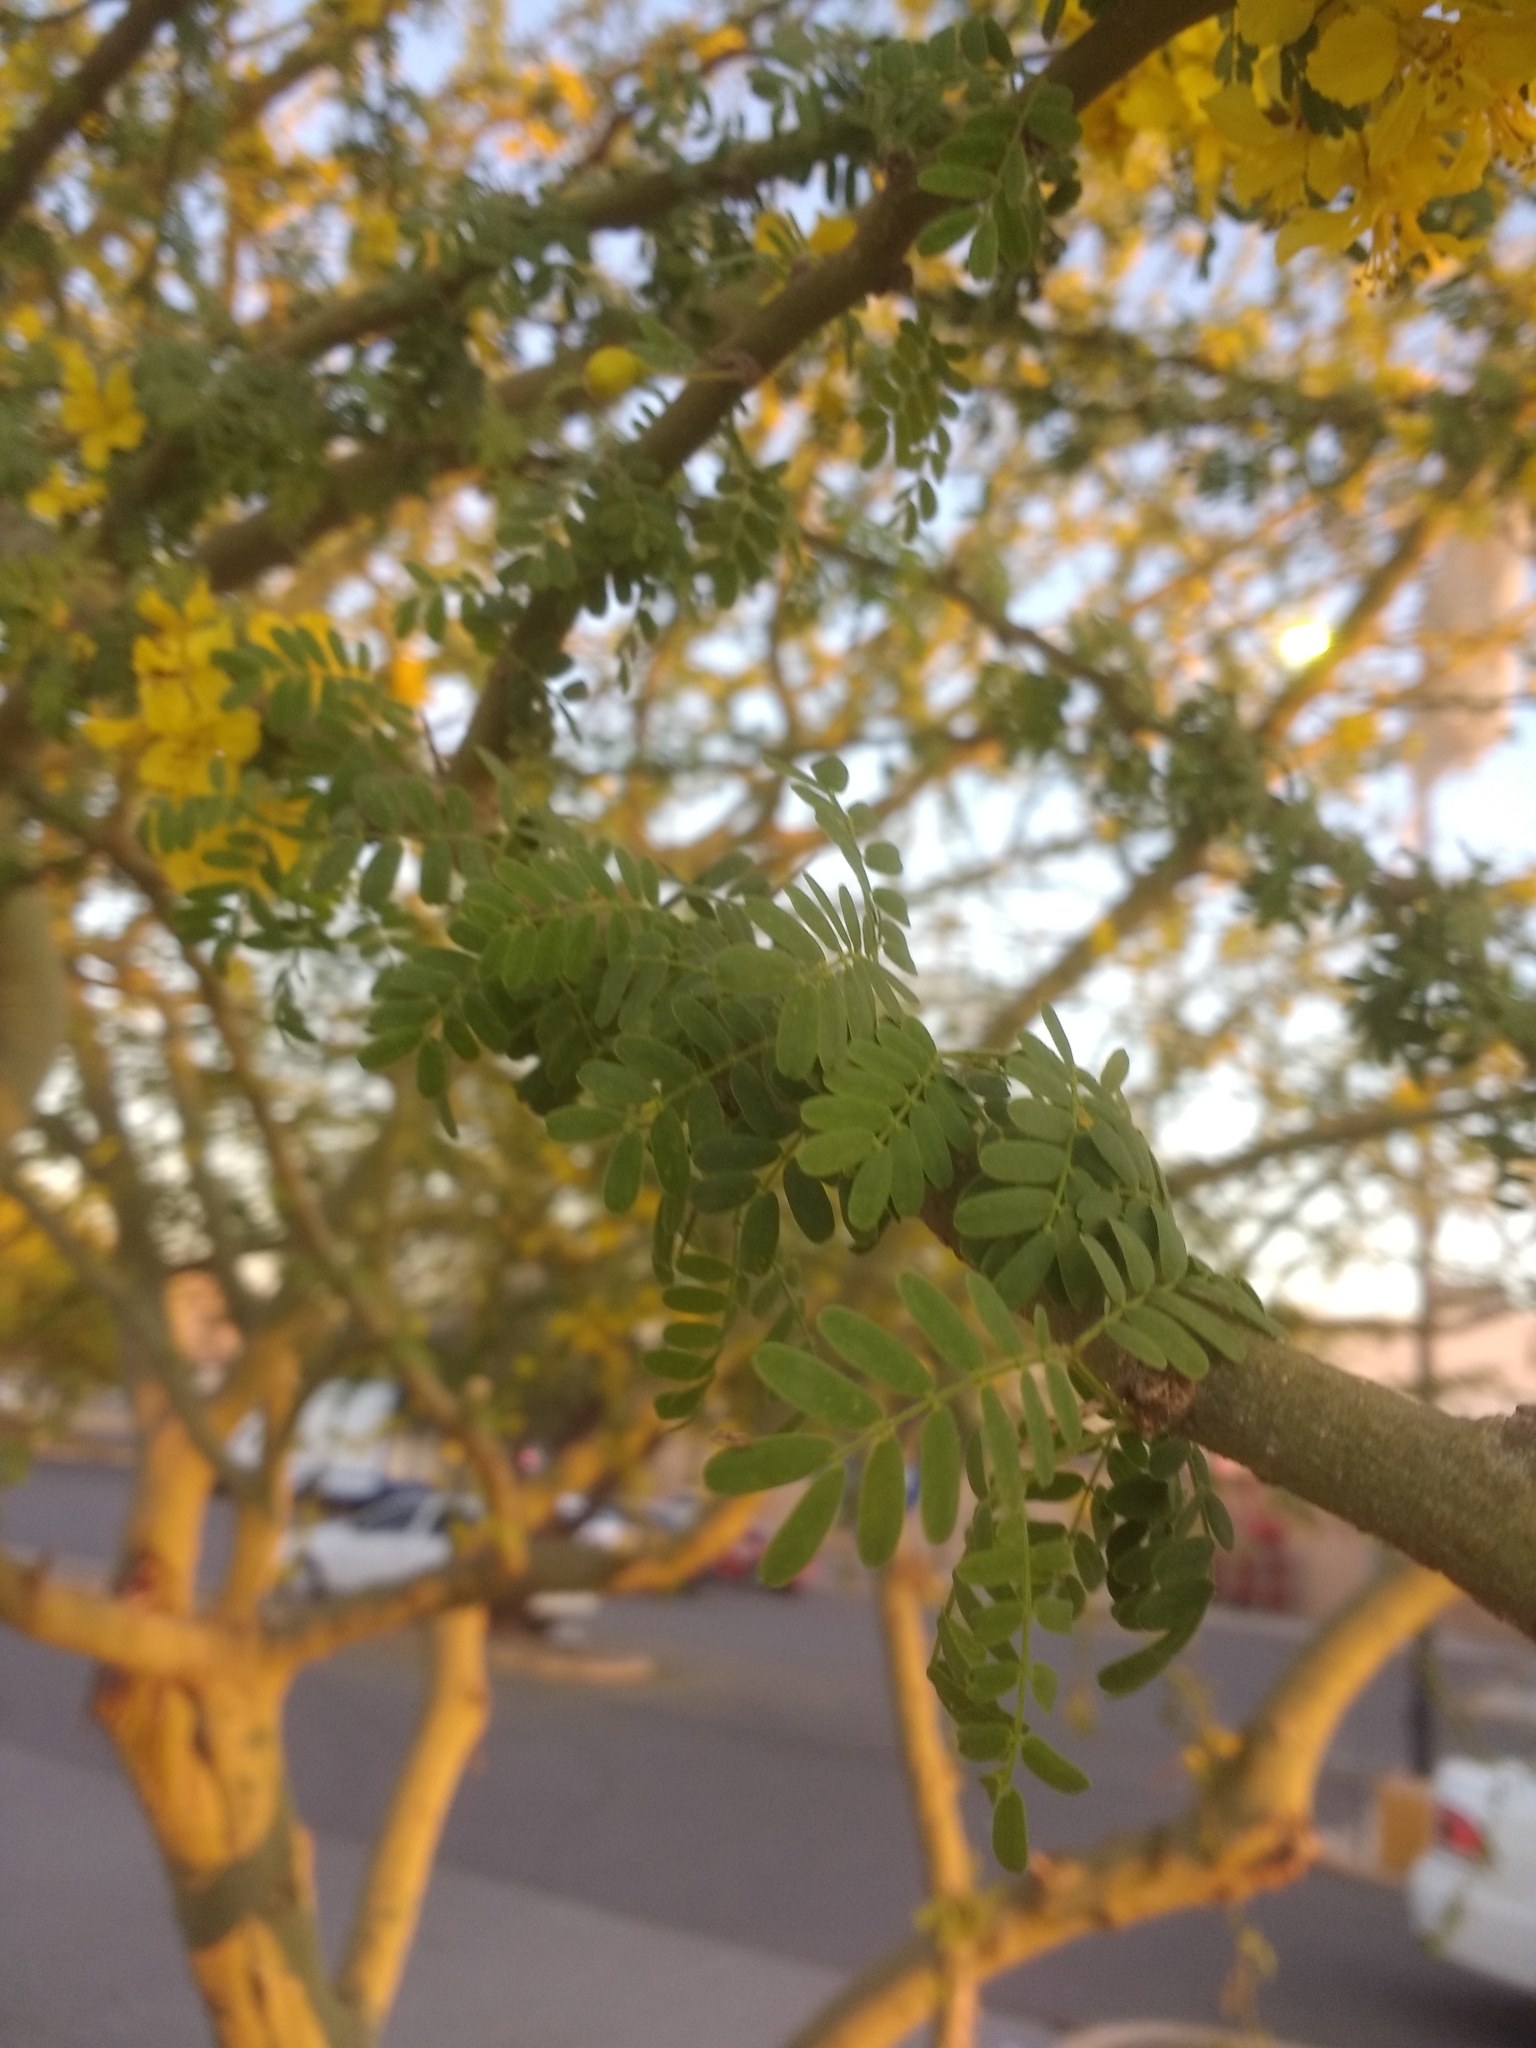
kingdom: Plantae
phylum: Tracheophyta
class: Magnoliopsida
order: Fabales
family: Fabaceae
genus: Parkinsonia
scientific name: Parkinsonia praecox
